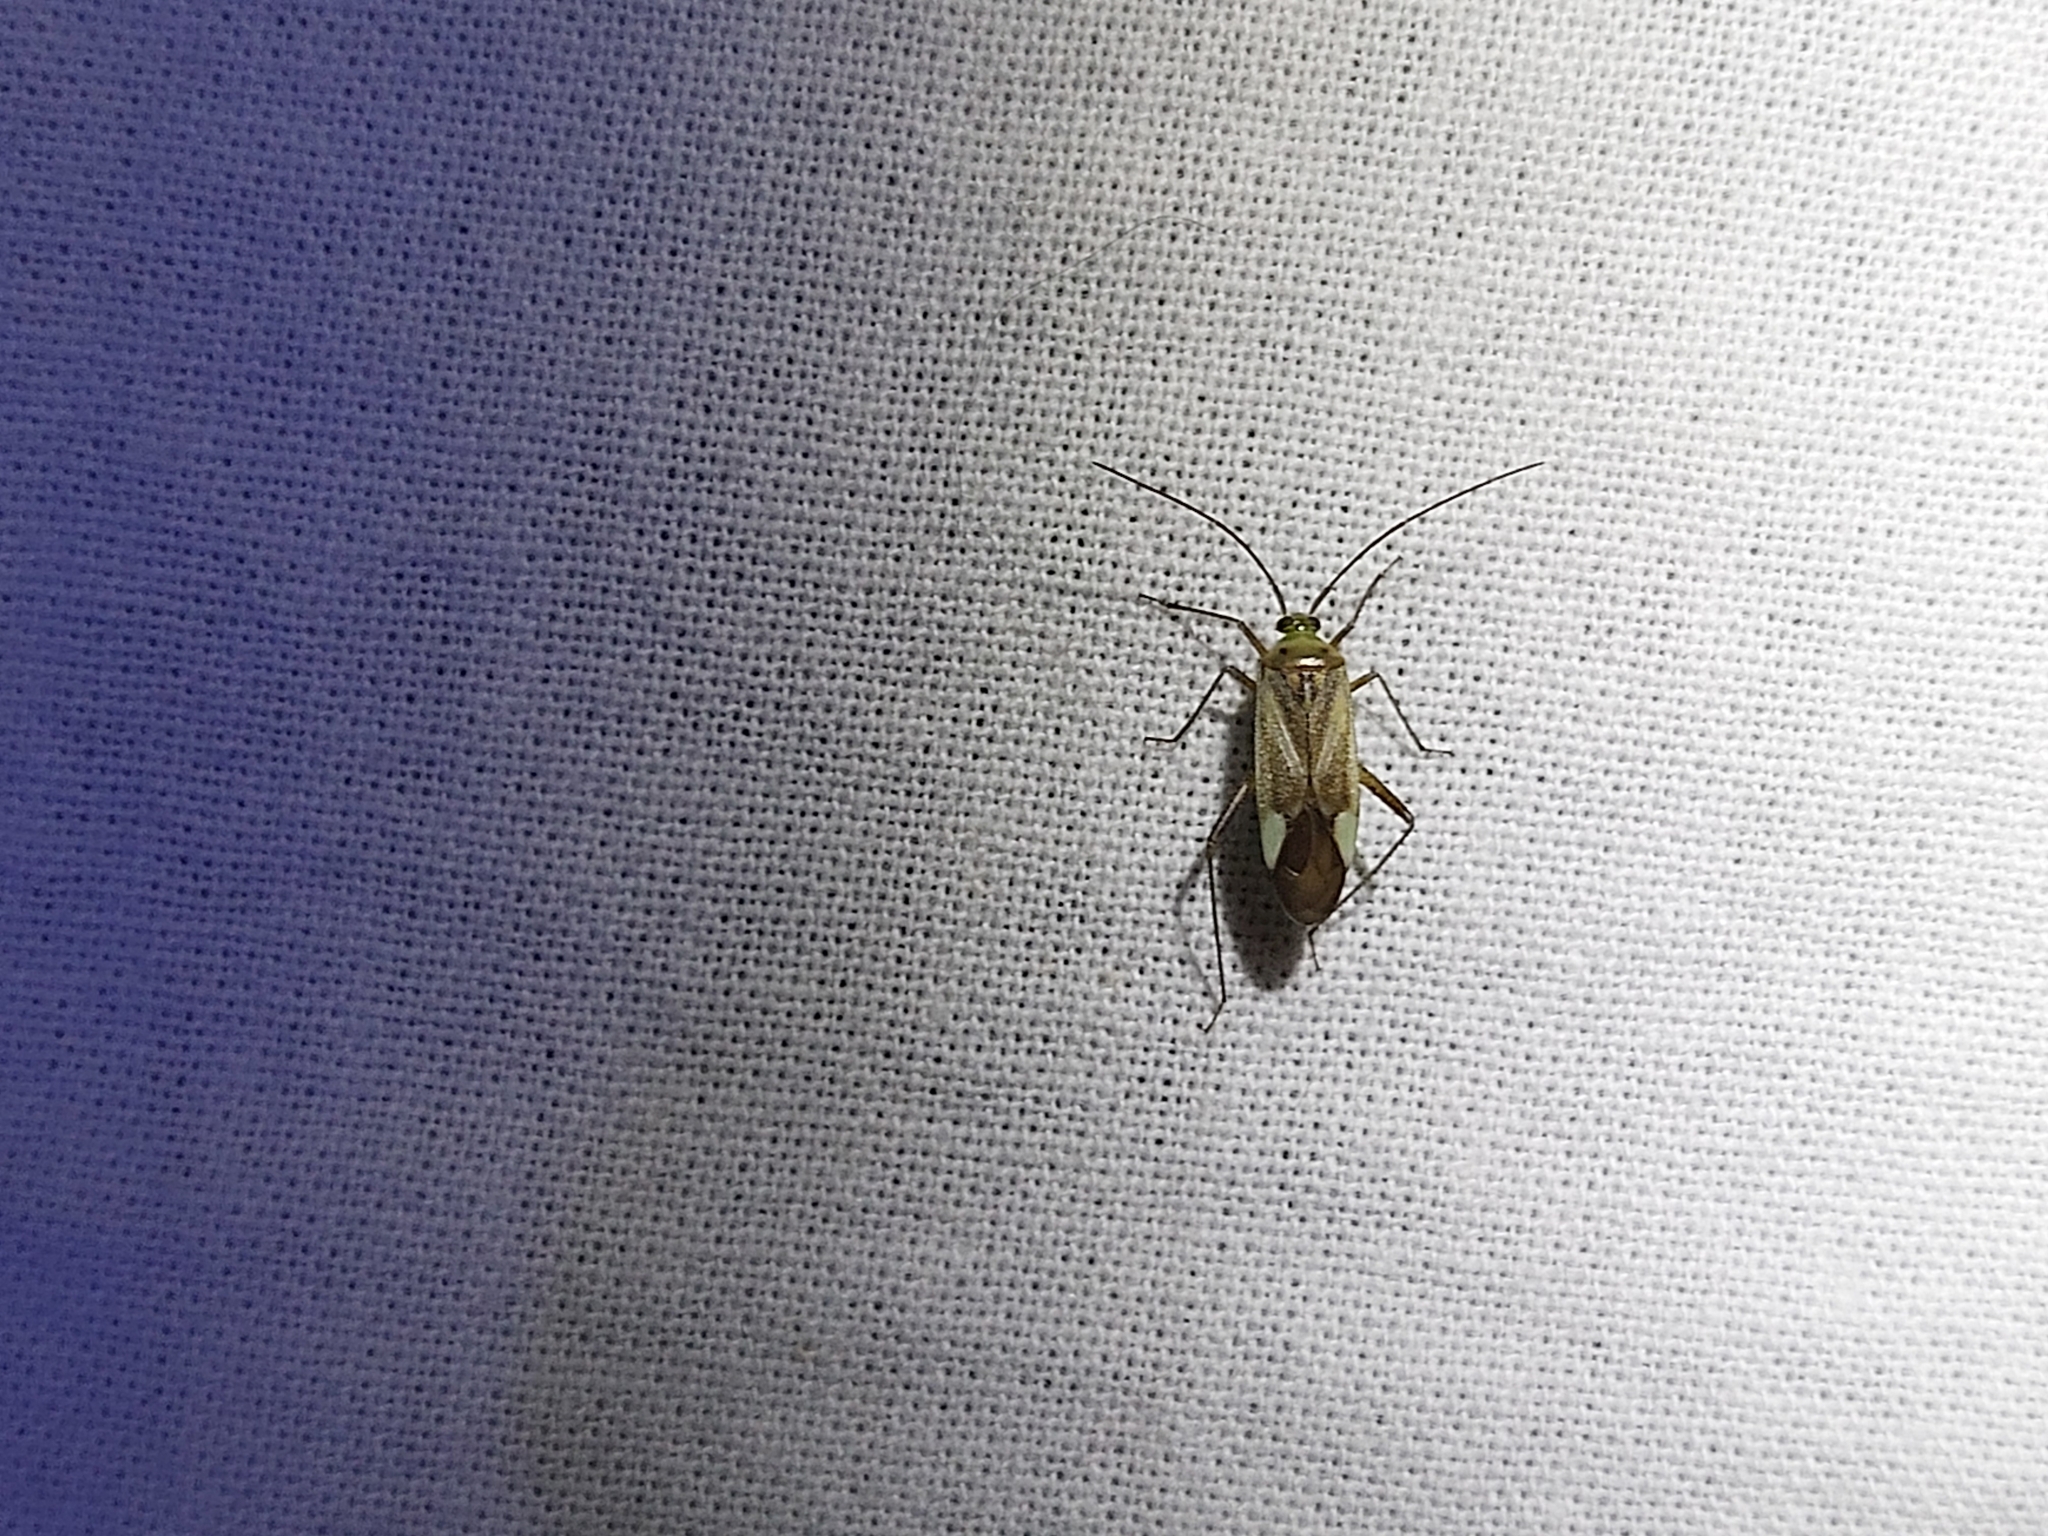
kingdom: Animalia
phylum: Arthropoda
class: Insecta
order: Hemiptera
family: Miridae
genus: Adelphocoris
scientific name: Adelphocoris lineolatus
